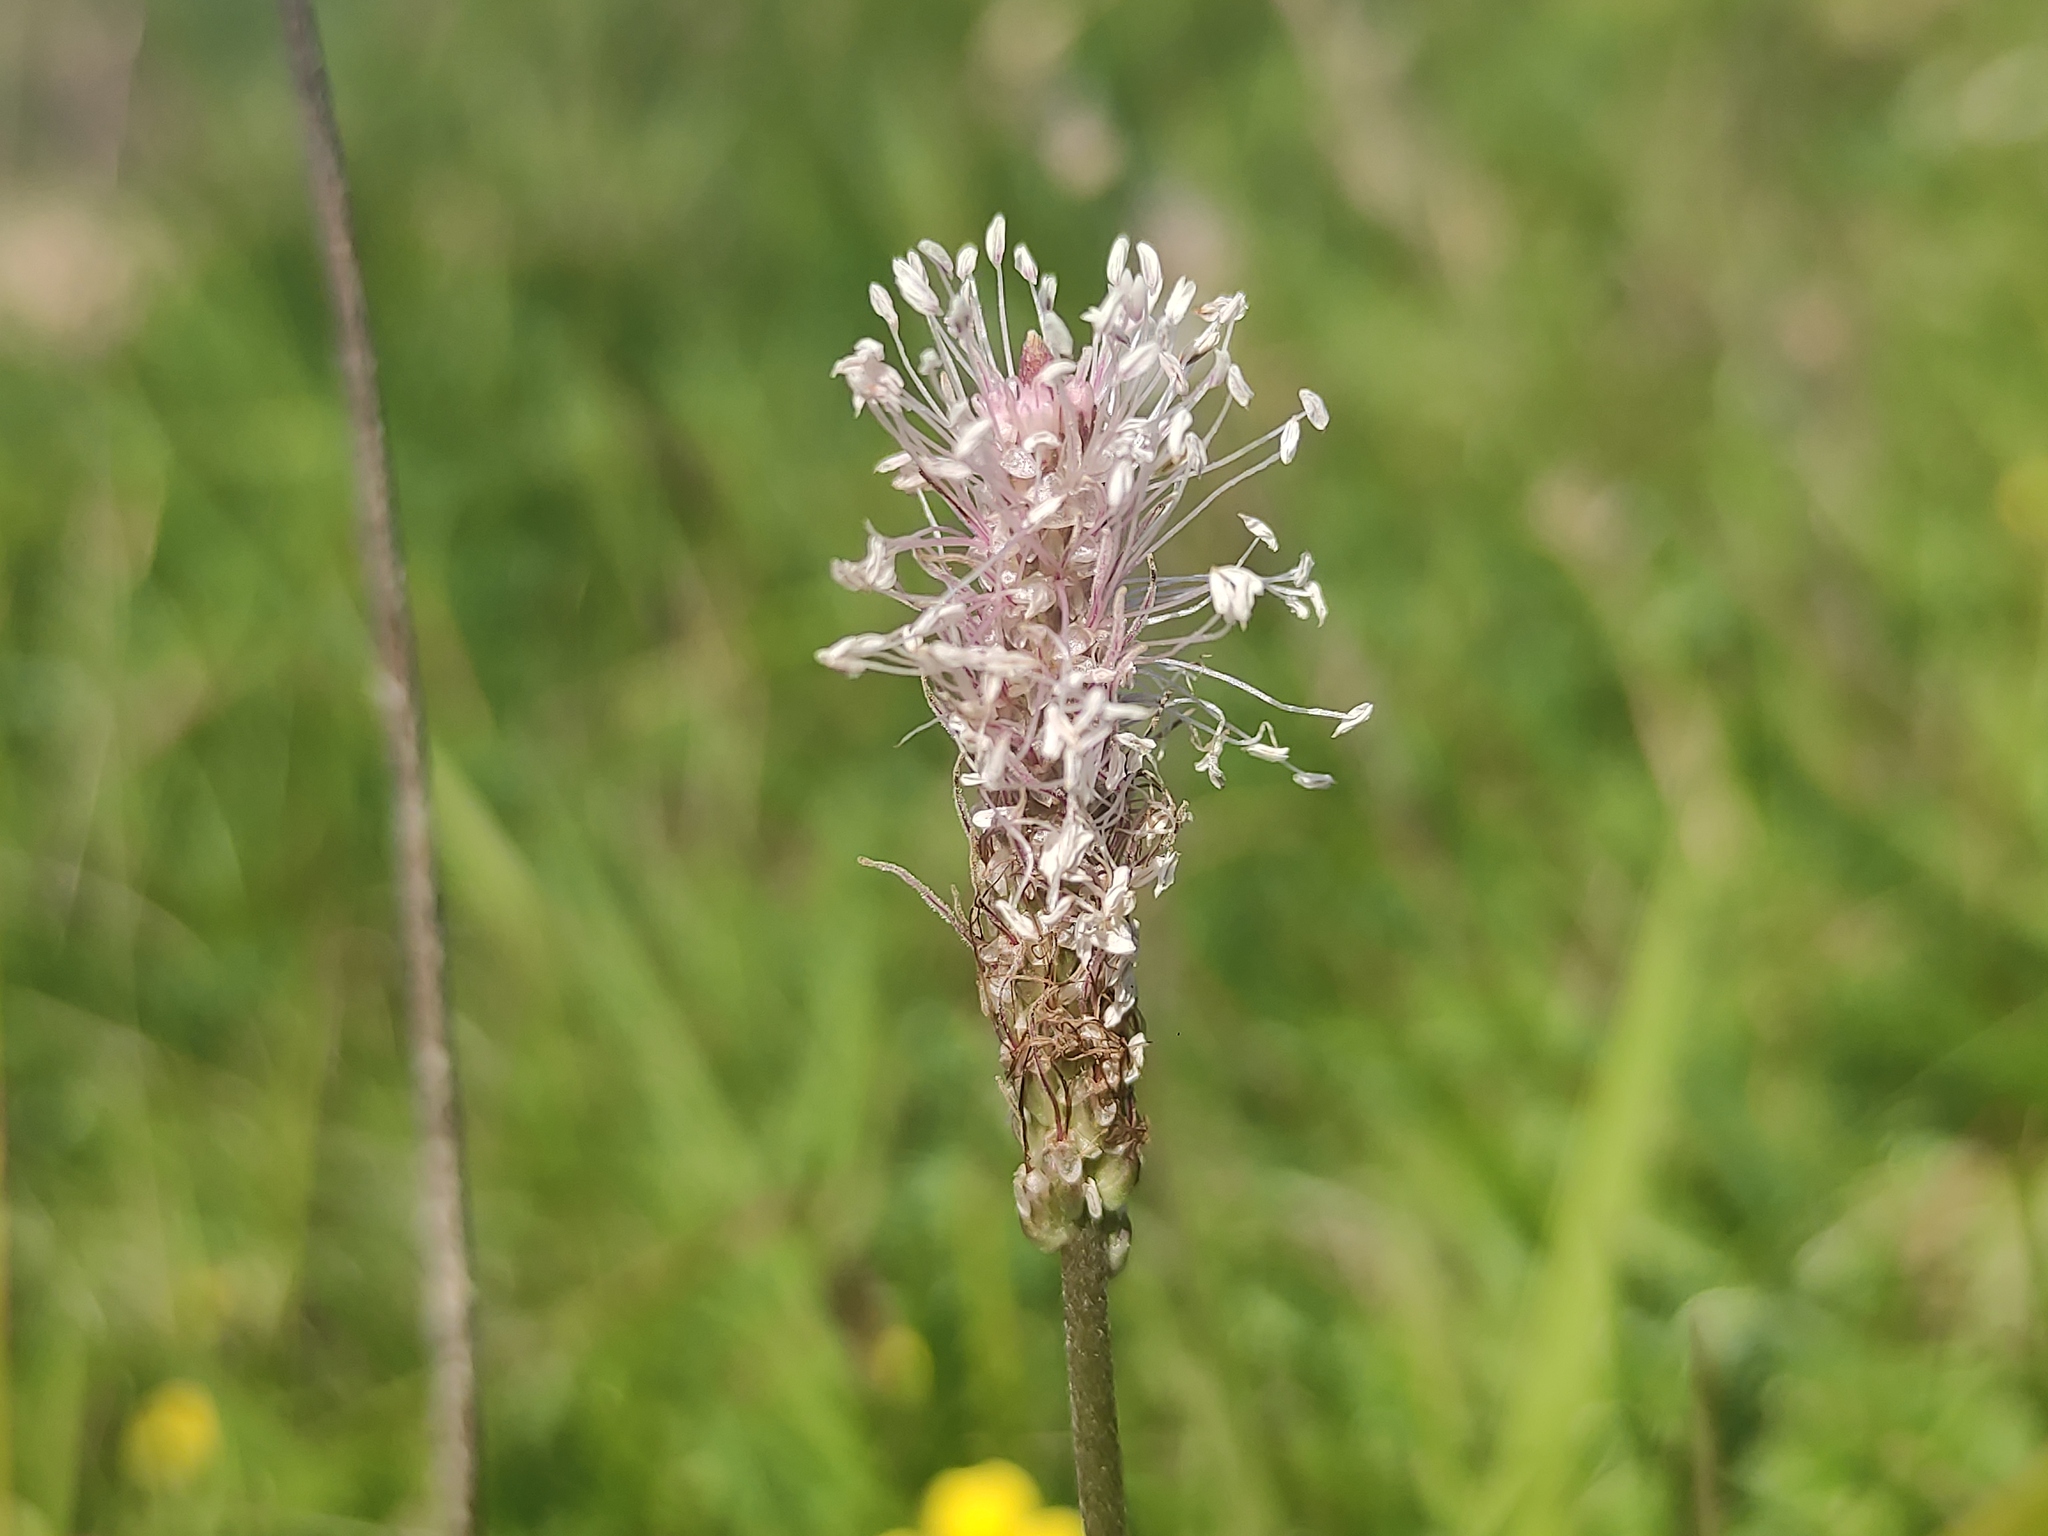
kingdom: Plantae
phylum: Tracheophyta
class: Magnoliopsida
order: Lamiales
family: Plantaginaceae
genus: Plantago
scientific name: Plantago media
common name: Hoary plantain
